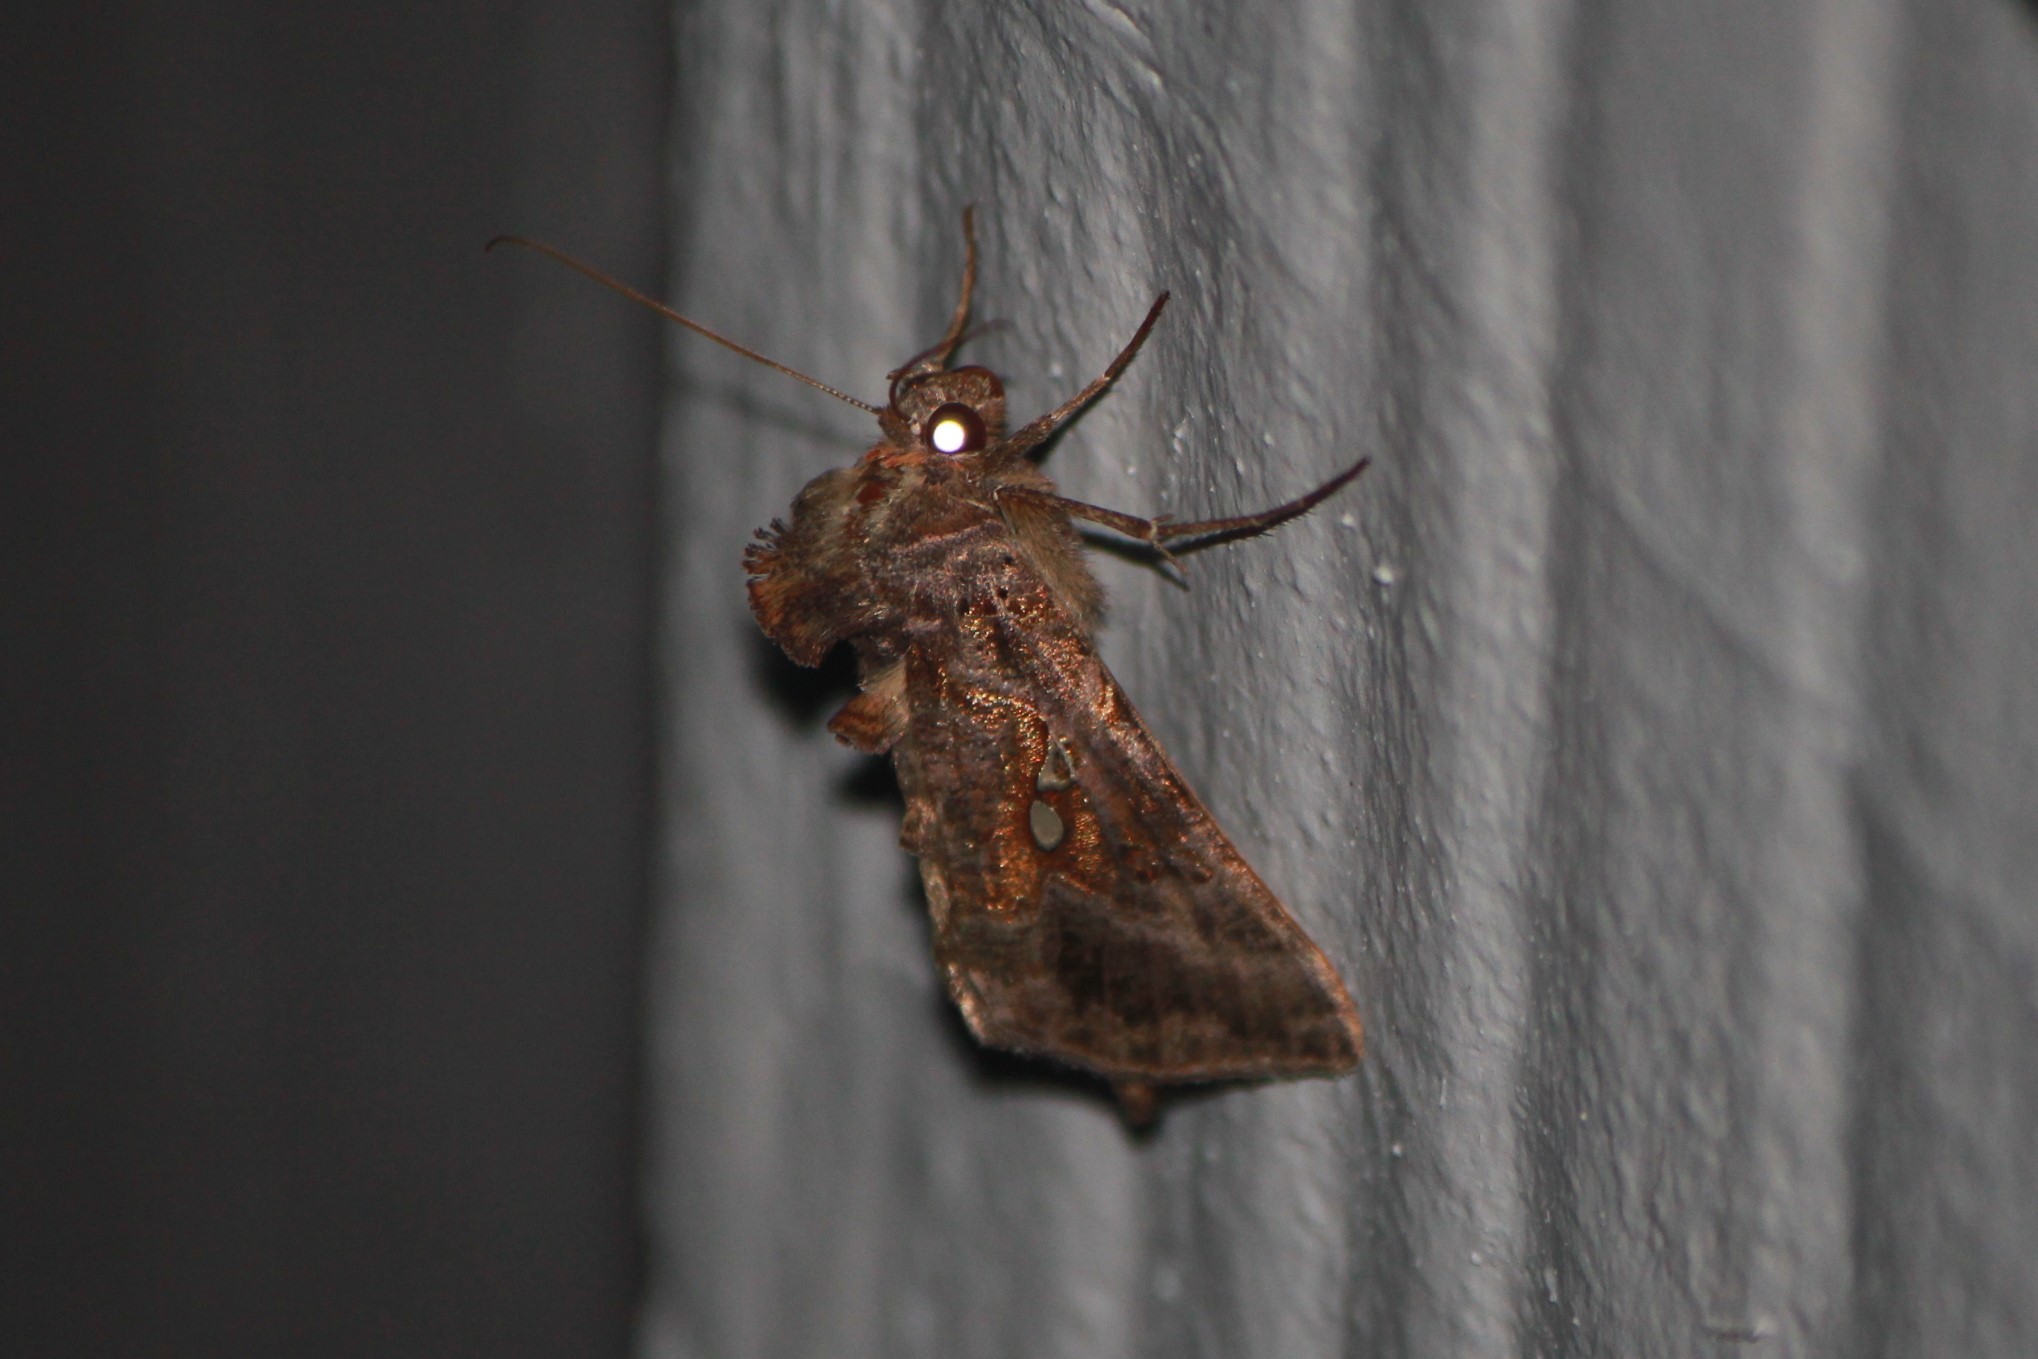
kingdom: Animalia
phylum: Arthropoda
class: Insecta
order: Lepidoptera
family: Noctuidae
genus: Autographa
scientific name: Autographa precationis
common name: Common looper moth
